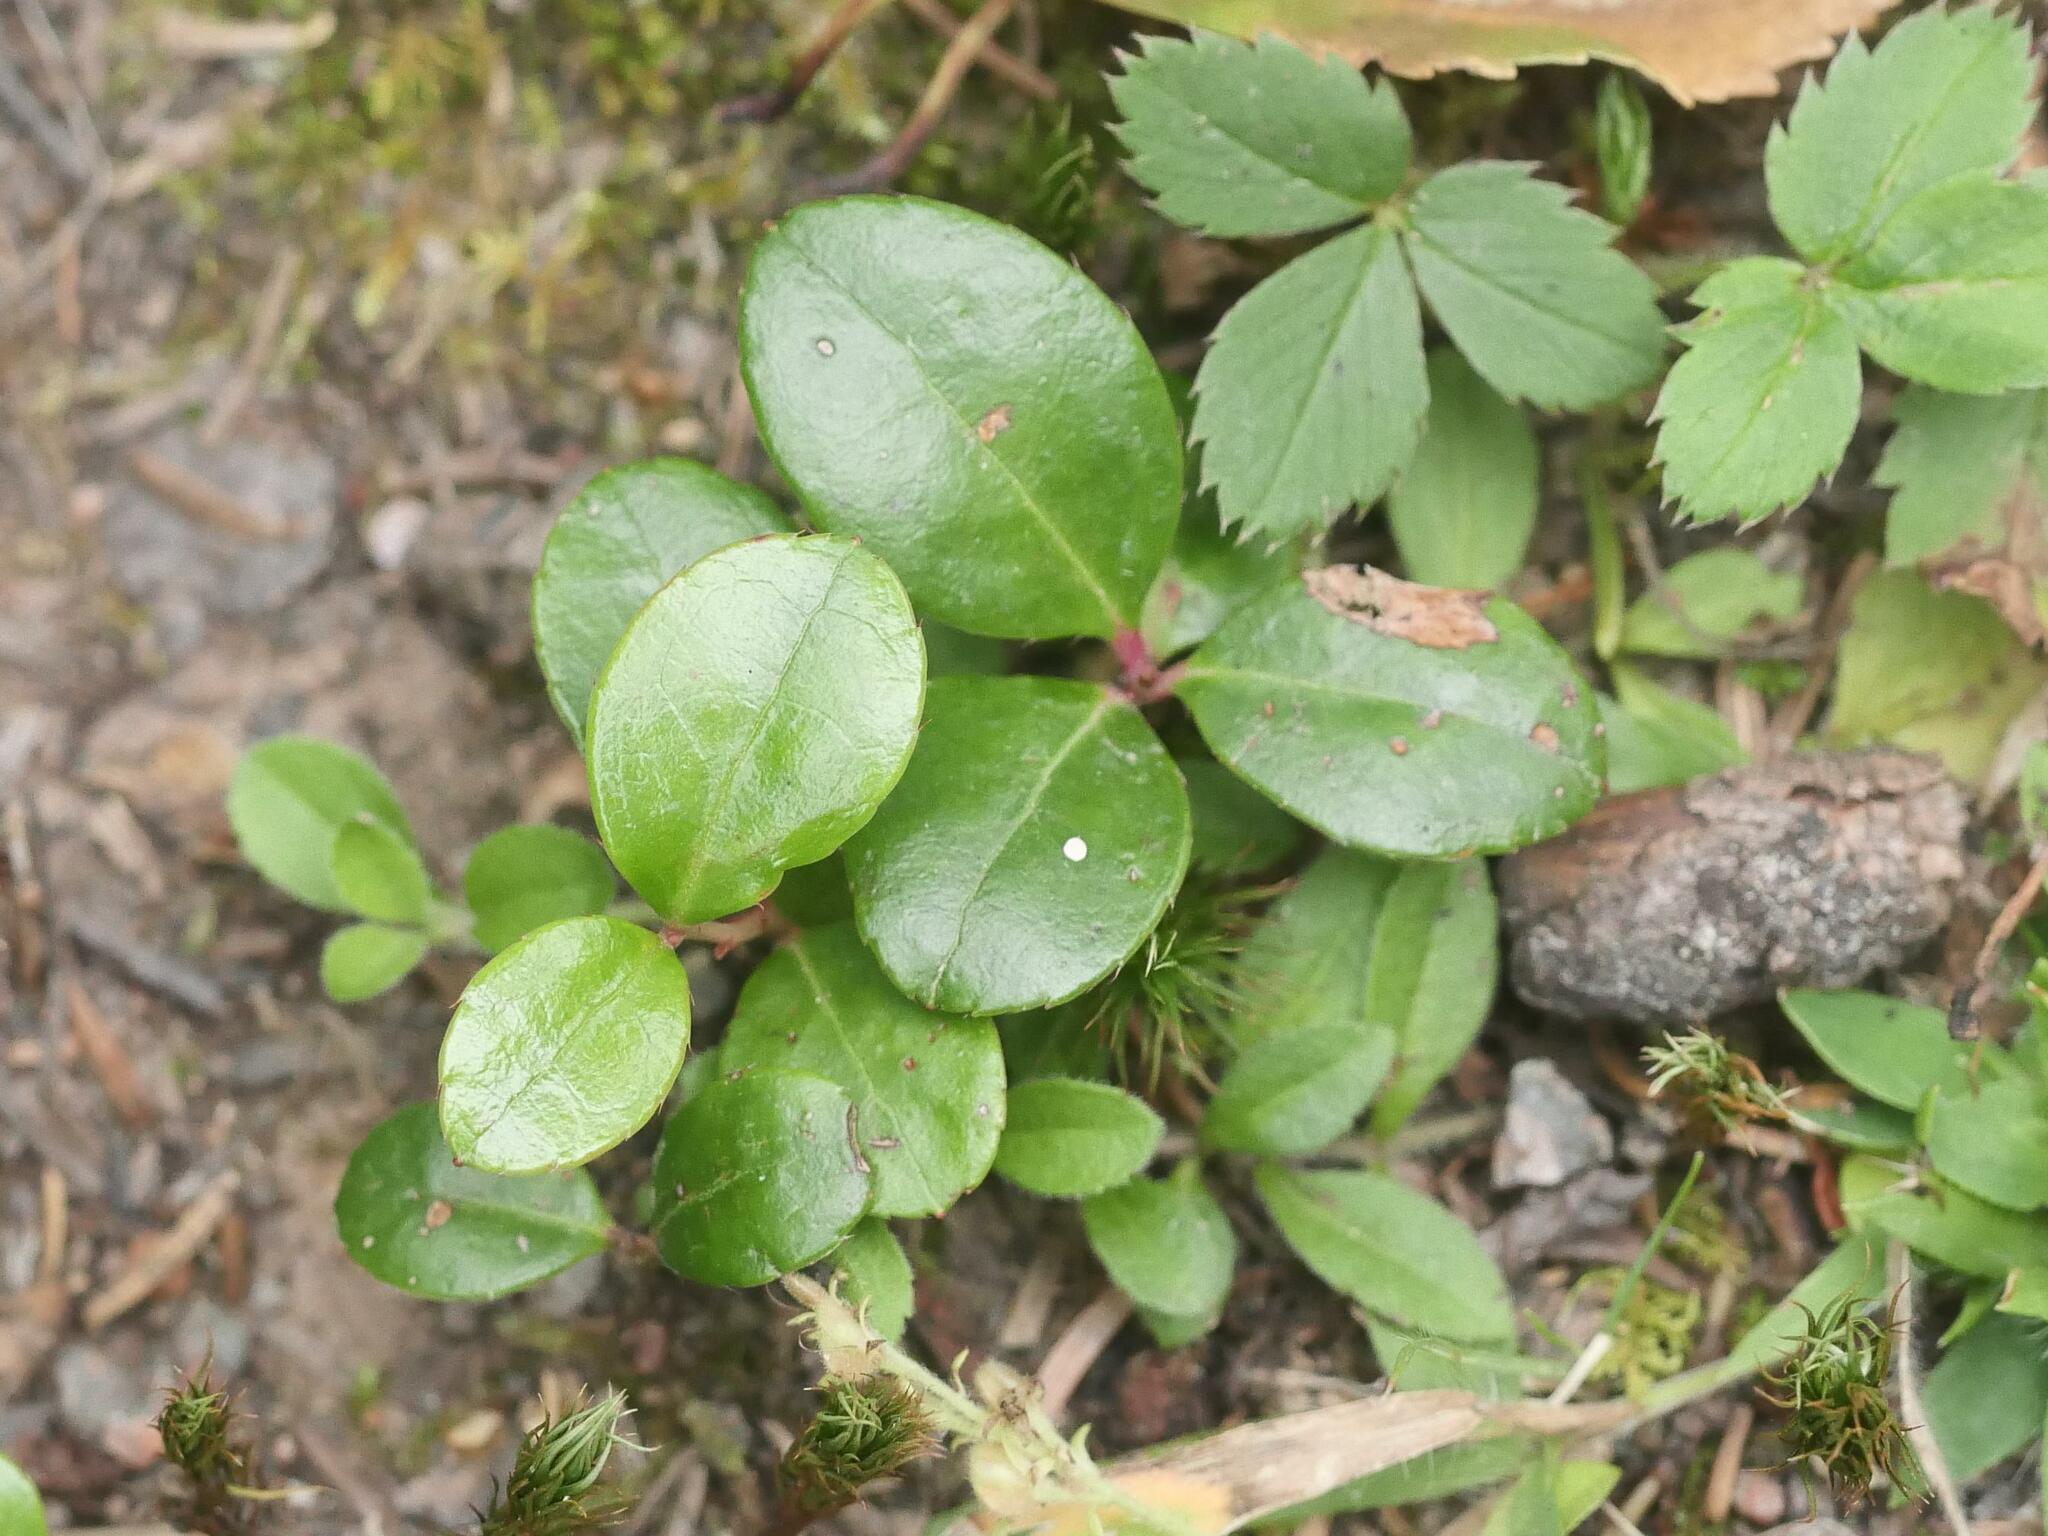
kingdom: Plantae
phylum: Tracheophyta
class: Magnoliopsida
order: Ericales
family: Ericaceae
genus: Gaultheria
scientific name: Gaultheria procumbens
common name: Checkerberry
